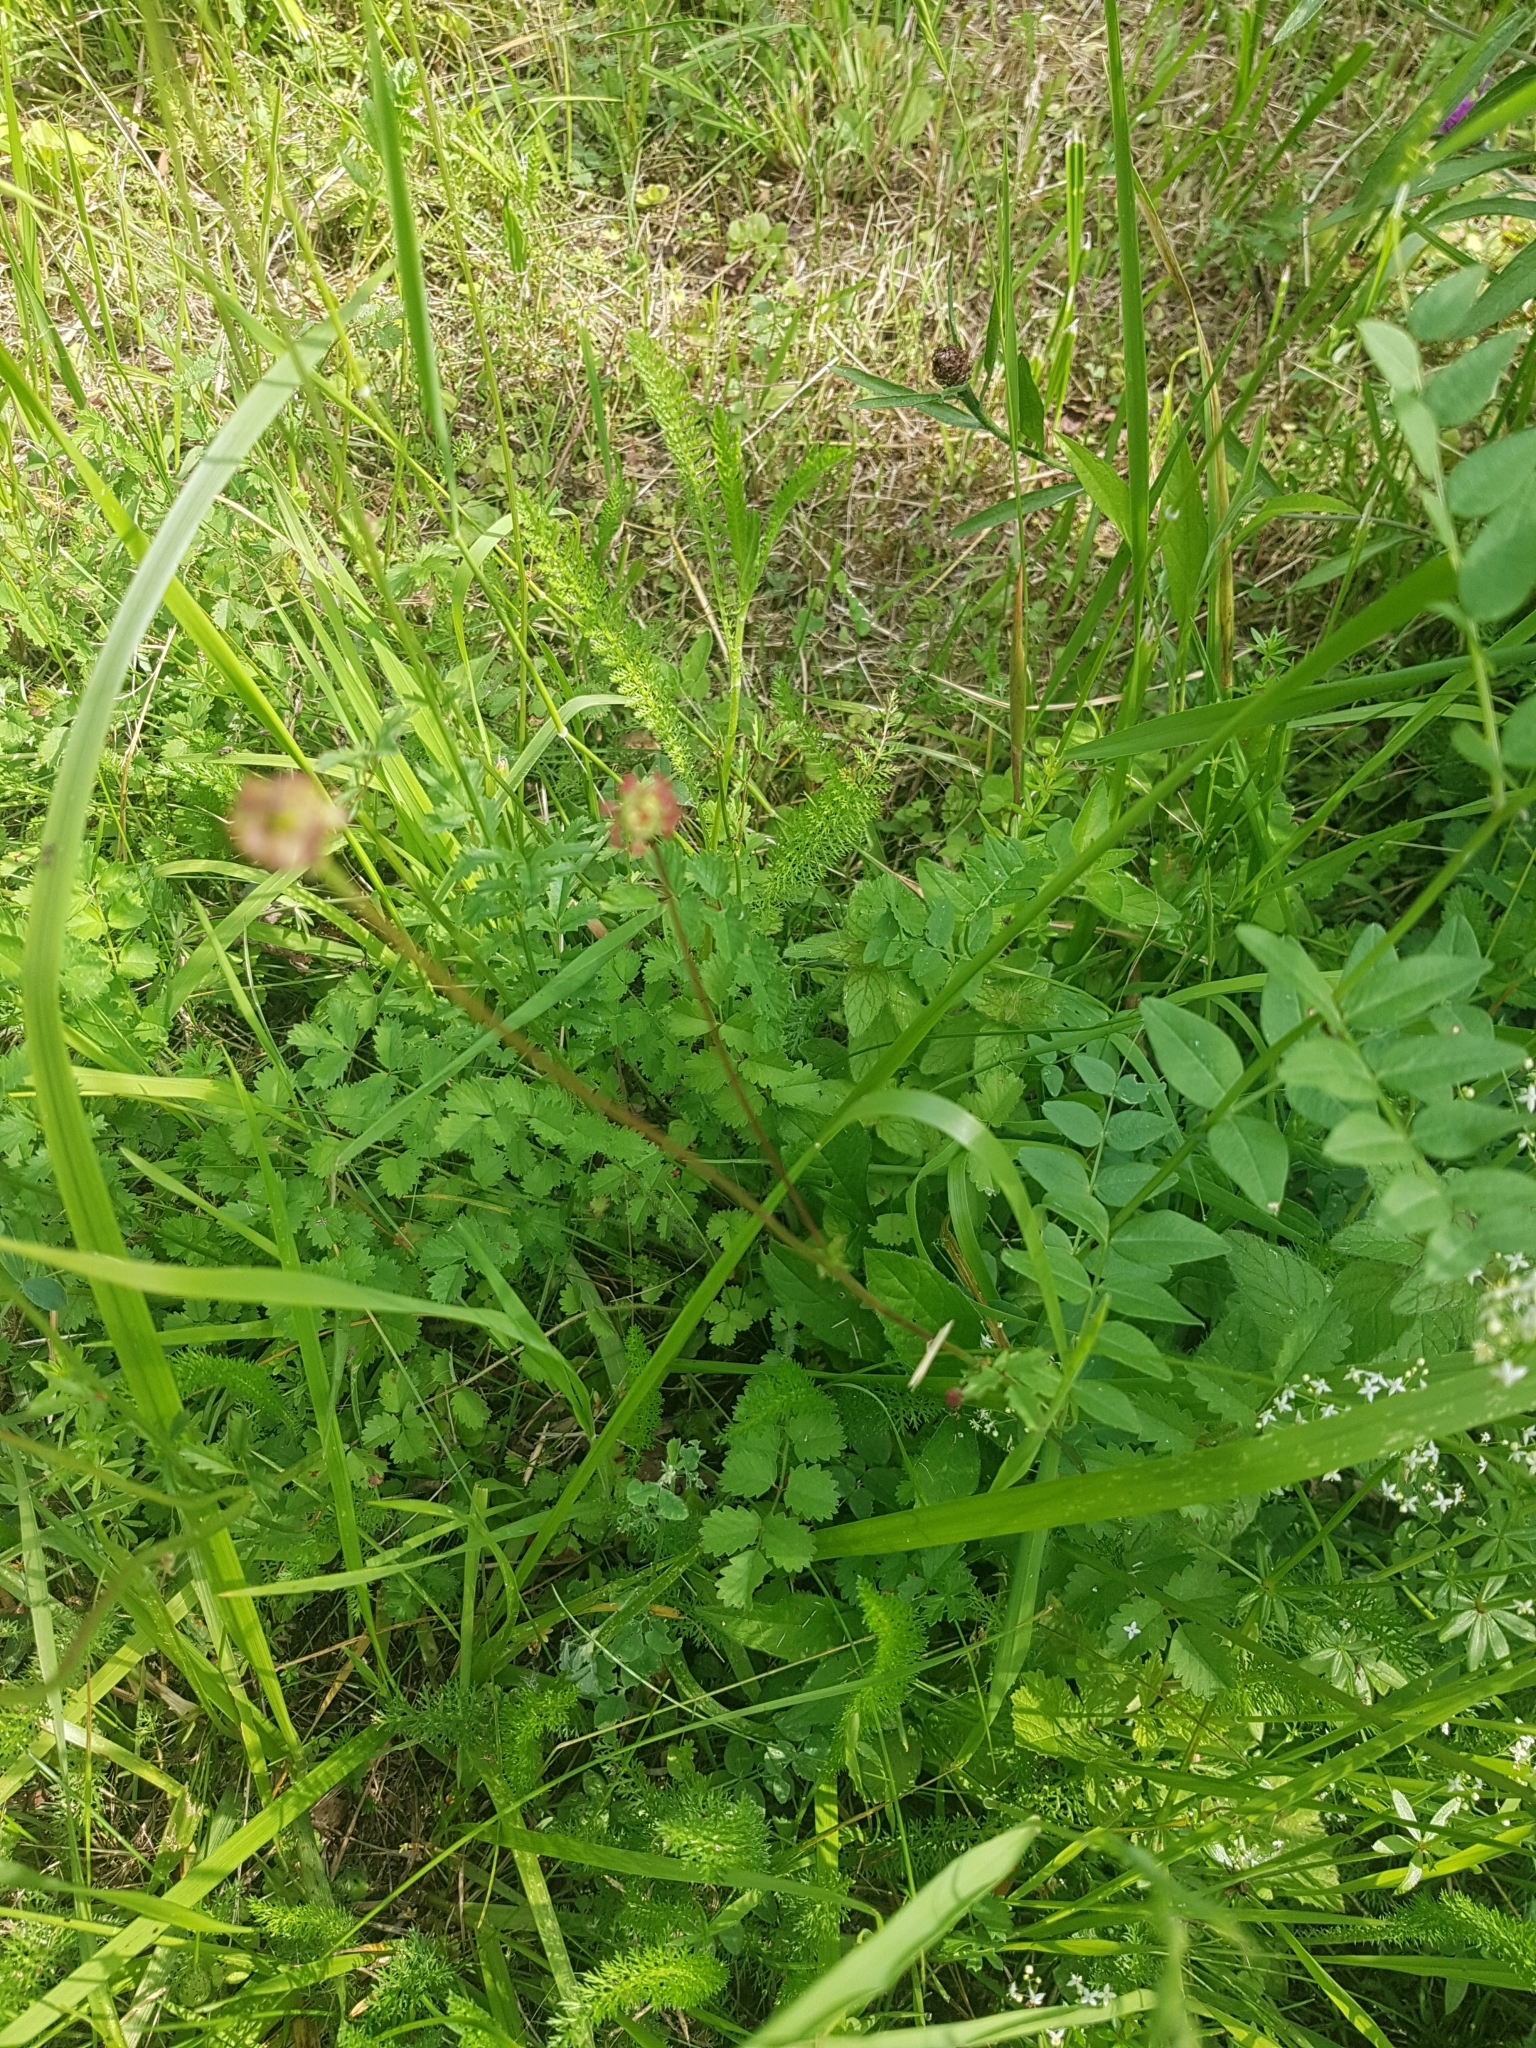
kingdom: Plantae
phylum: Tracheophyta
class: Magnoliopsida
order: Rosales
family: Rosaceae
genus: Poterium
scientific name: Poterium sanguisorba
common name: Salad burnet
